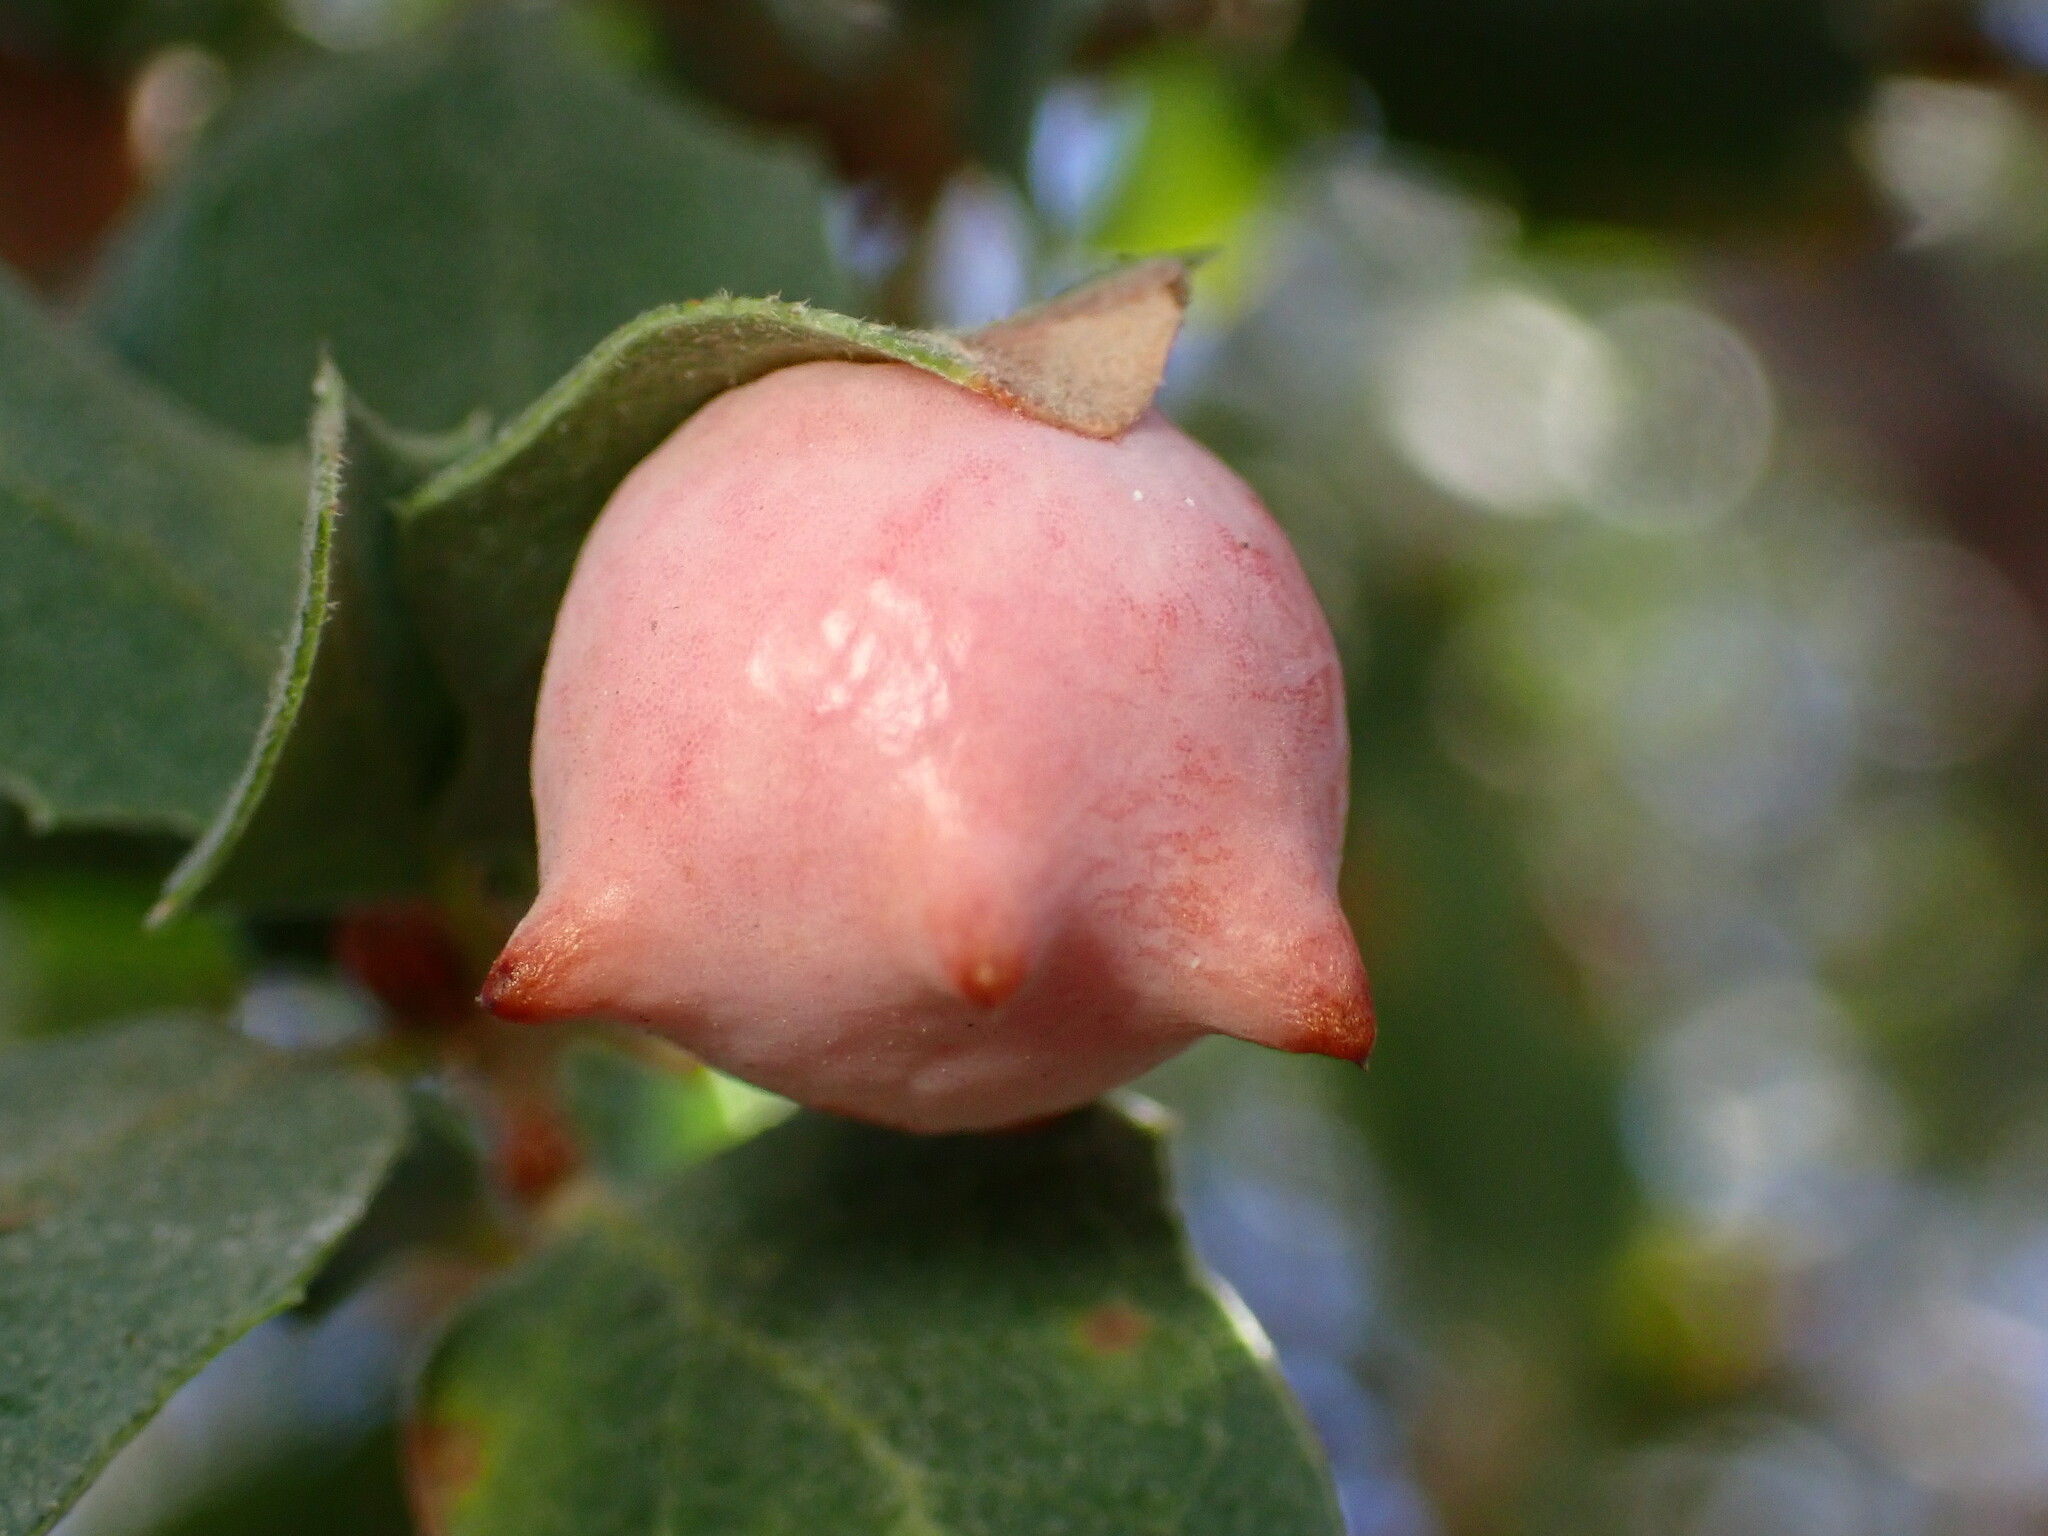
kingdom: Animalia
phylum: Arthropoda
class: Insecta
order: Hymenoptera
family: Cynipidae
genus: Cynips
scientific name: Cynips douglasi
